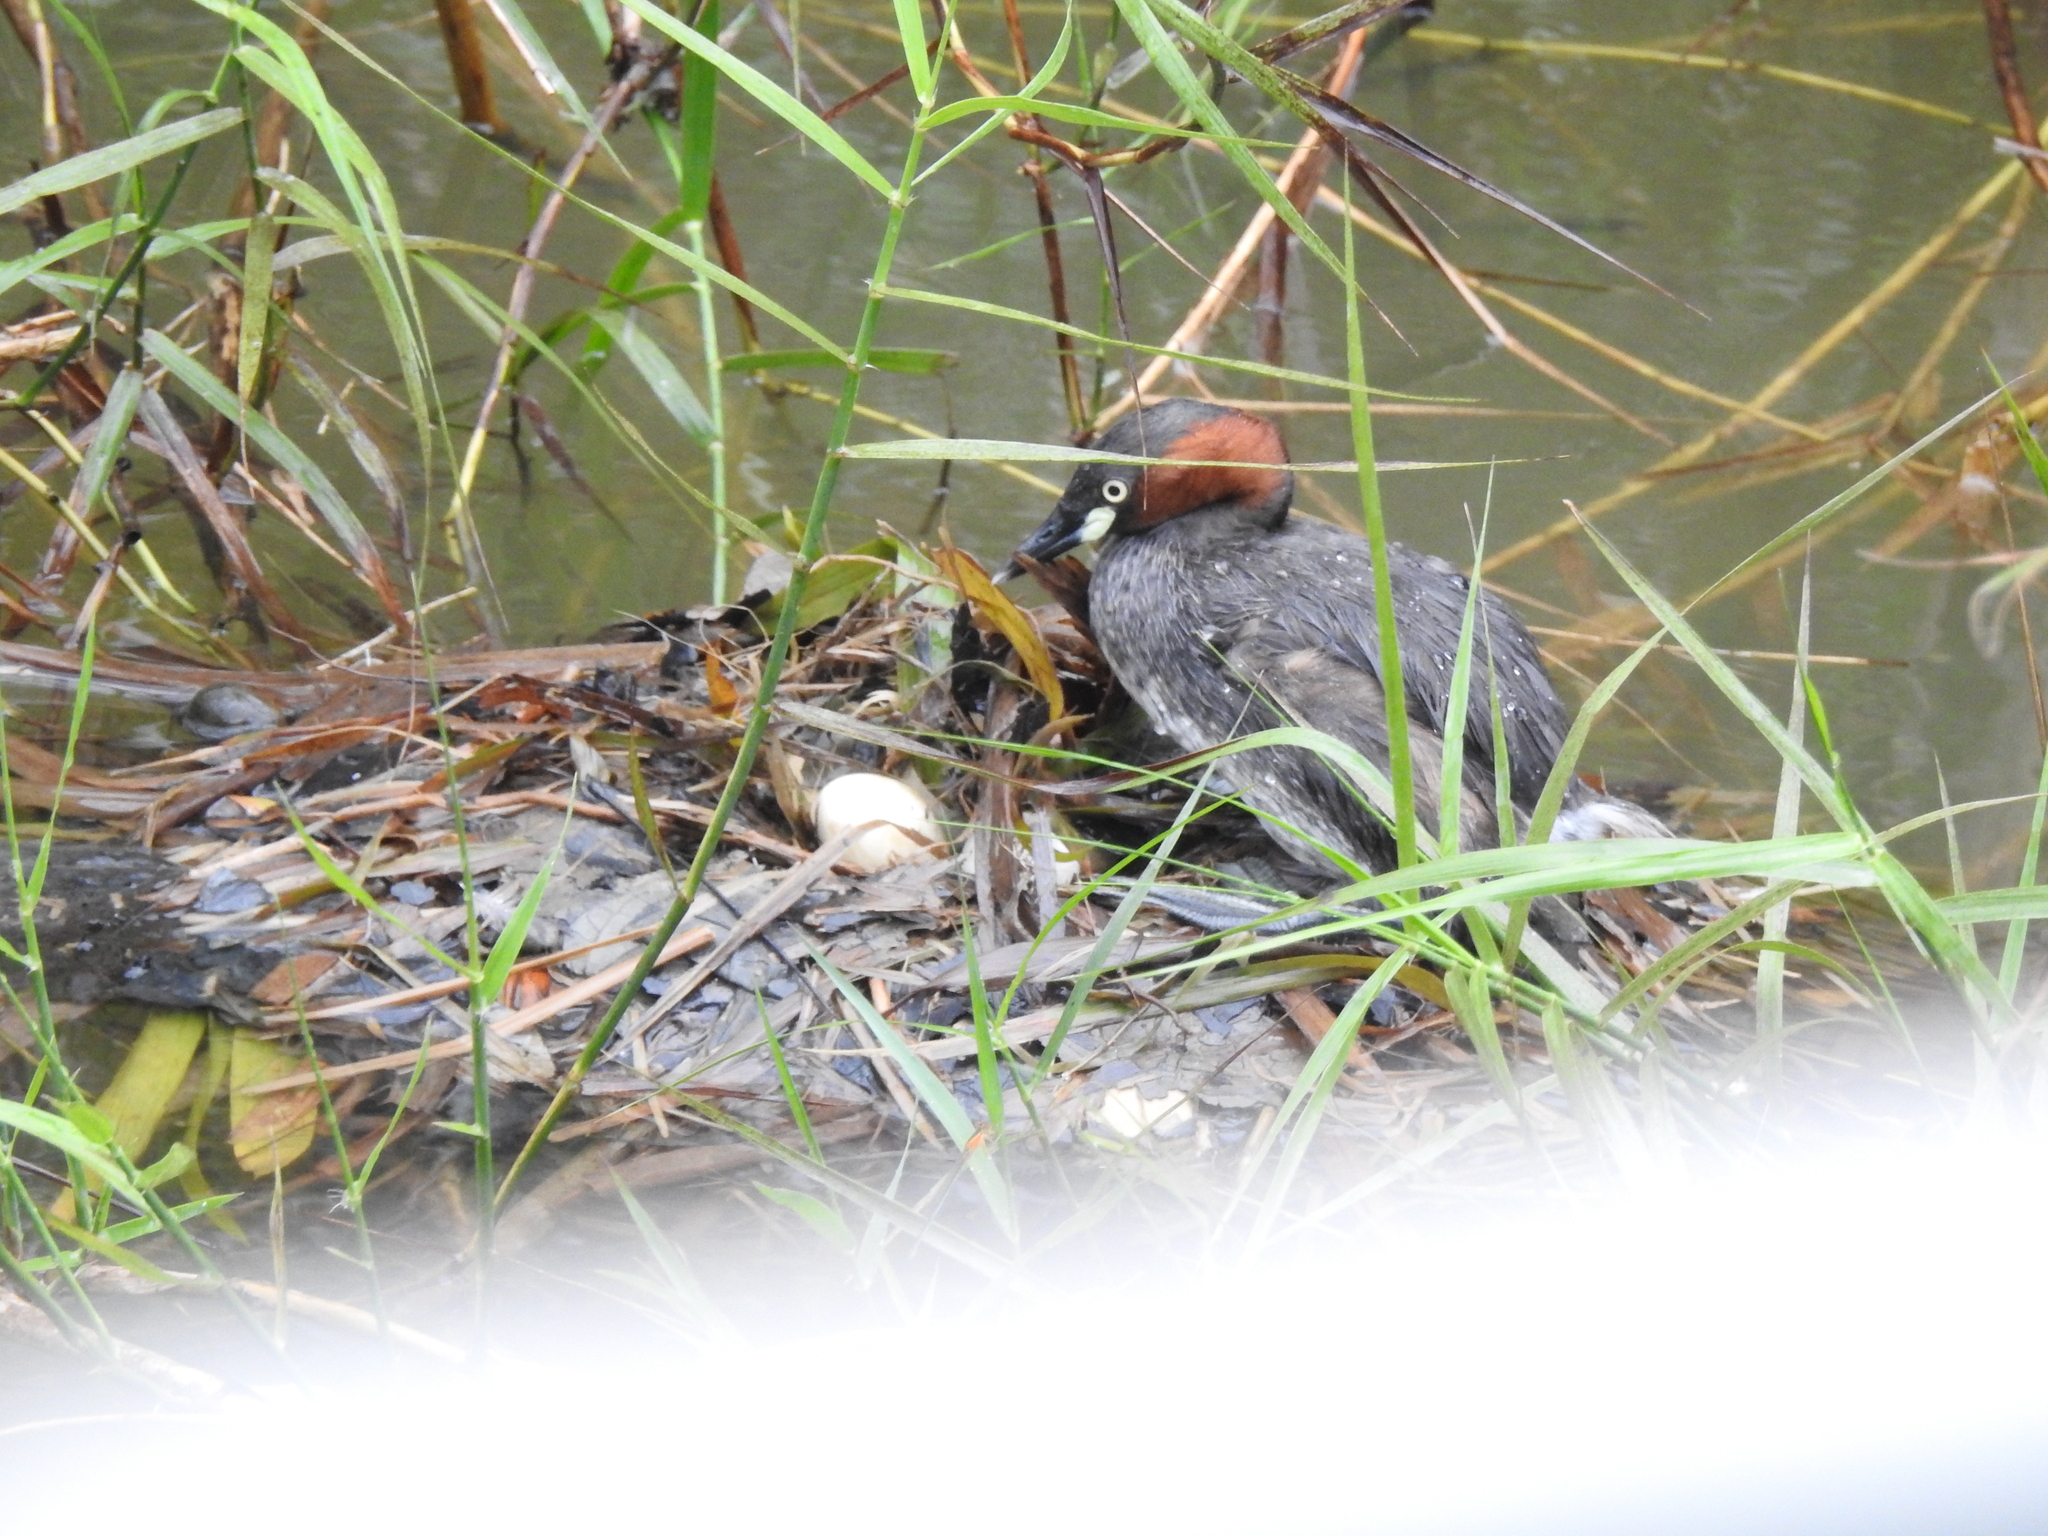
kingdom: Animalia
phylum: Chordata
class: Aves
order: Podicipediformes
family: Podicipedidae
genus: Tachybaptus
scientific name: Tachybaptus ruficollis
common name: Little grebe
